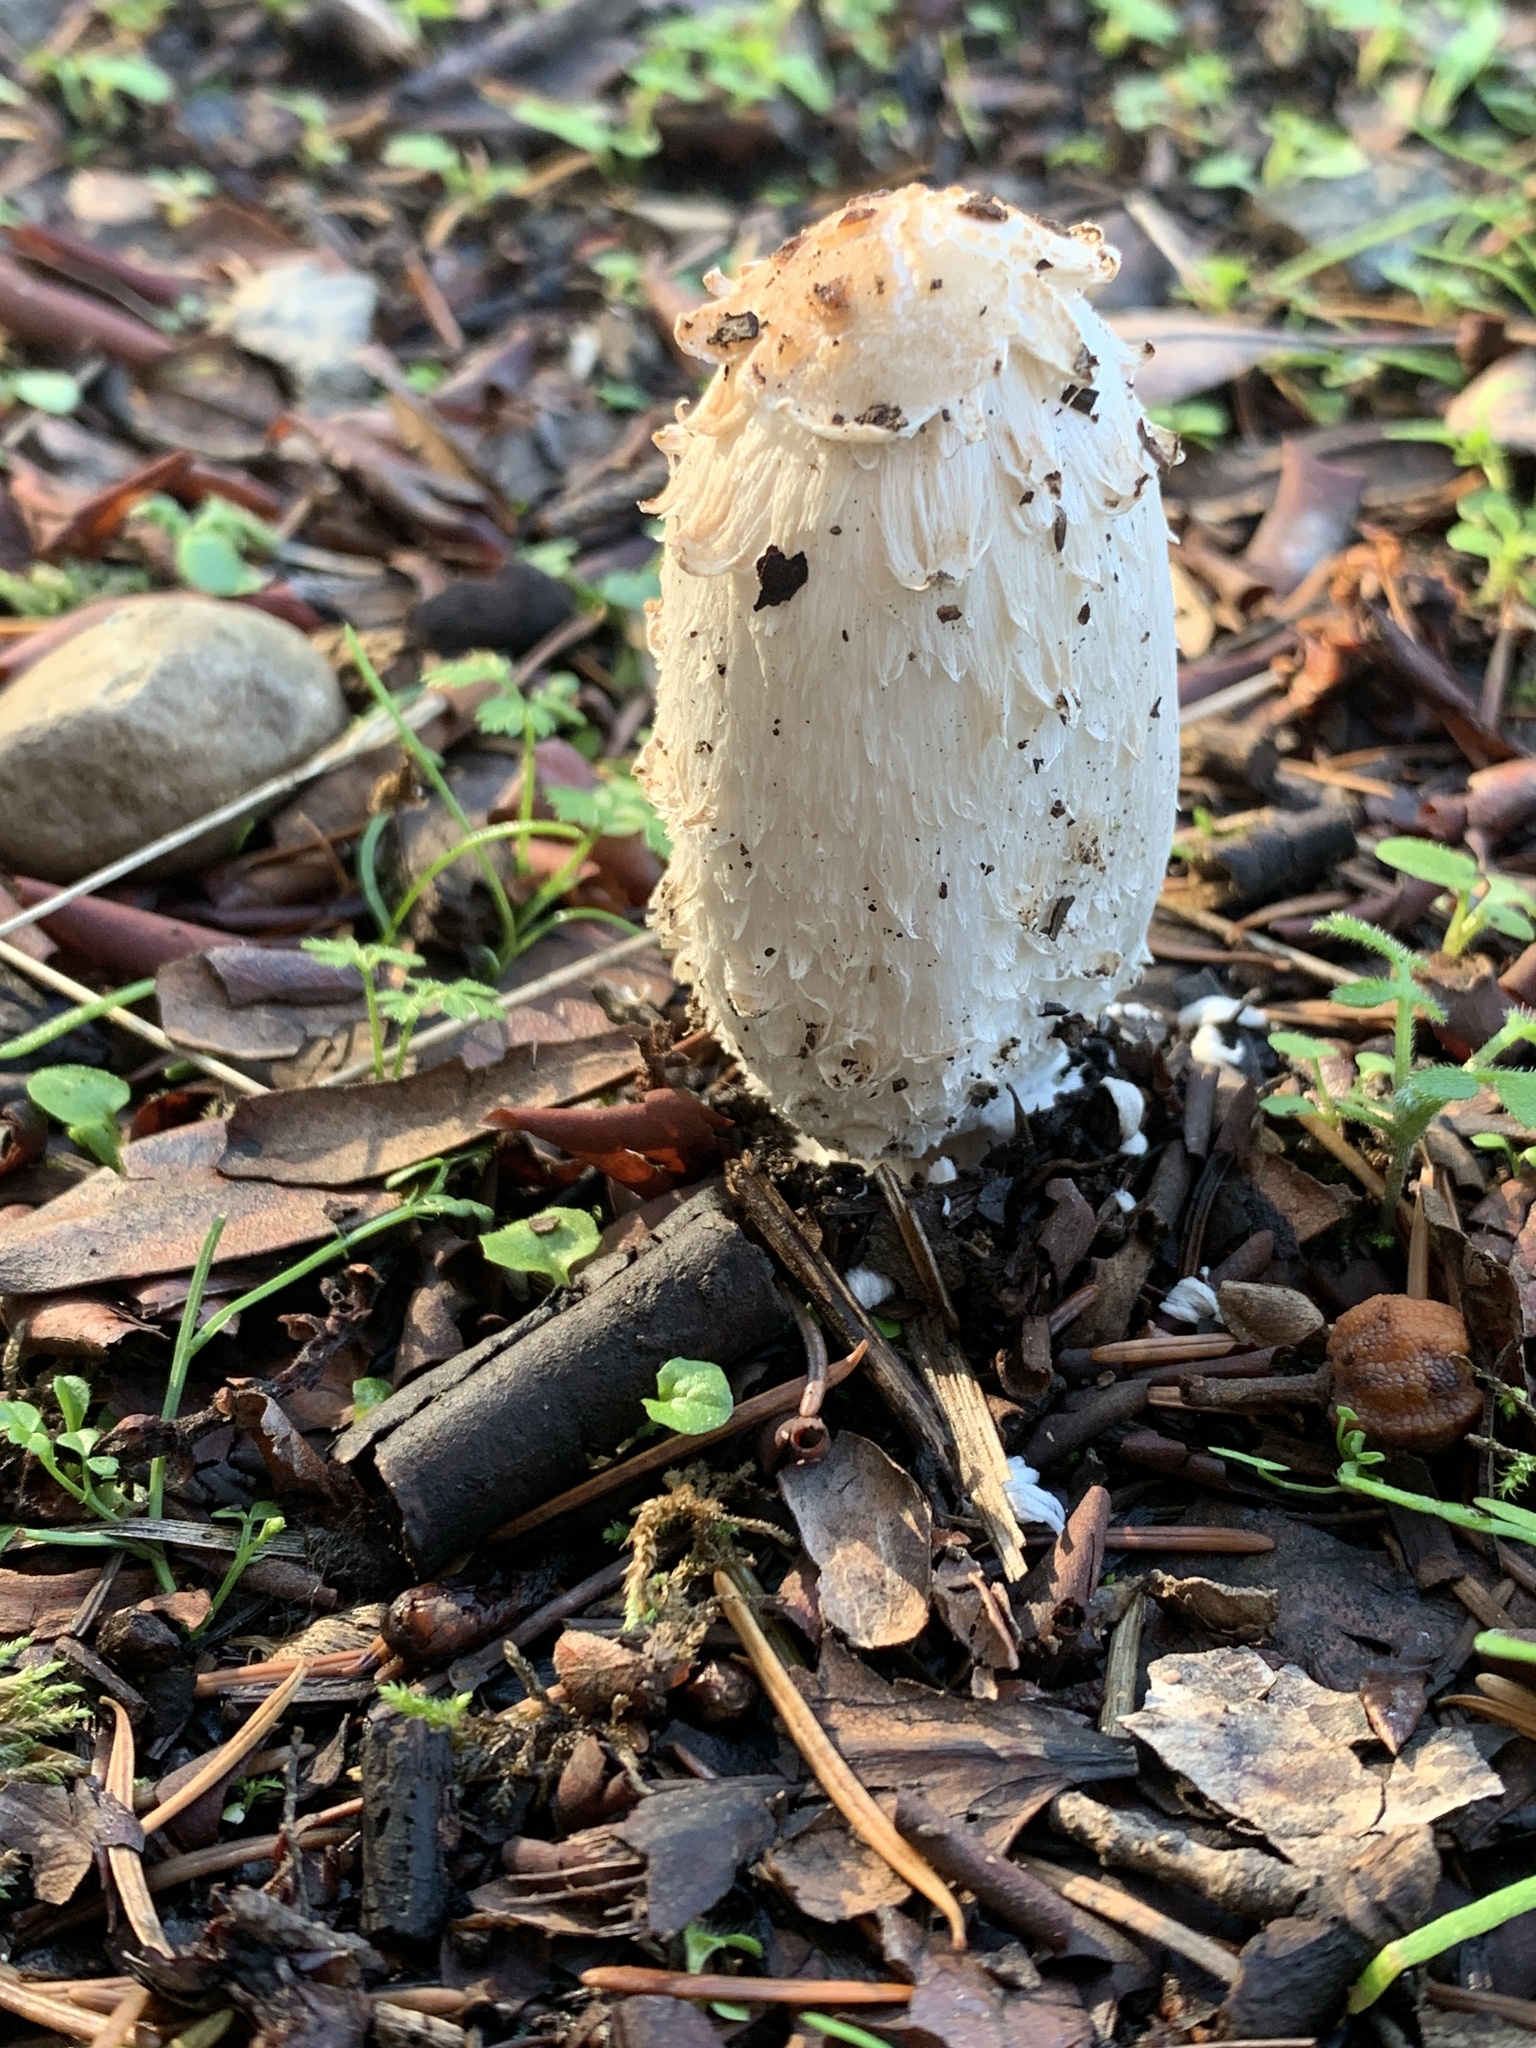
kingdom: Fungi
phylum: Basidiomycota
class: Agaricomycetes
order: Agaricales
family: Agaricaceae
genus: Coprinus
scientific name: Coprinus comatus
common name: Lawyer's wig
